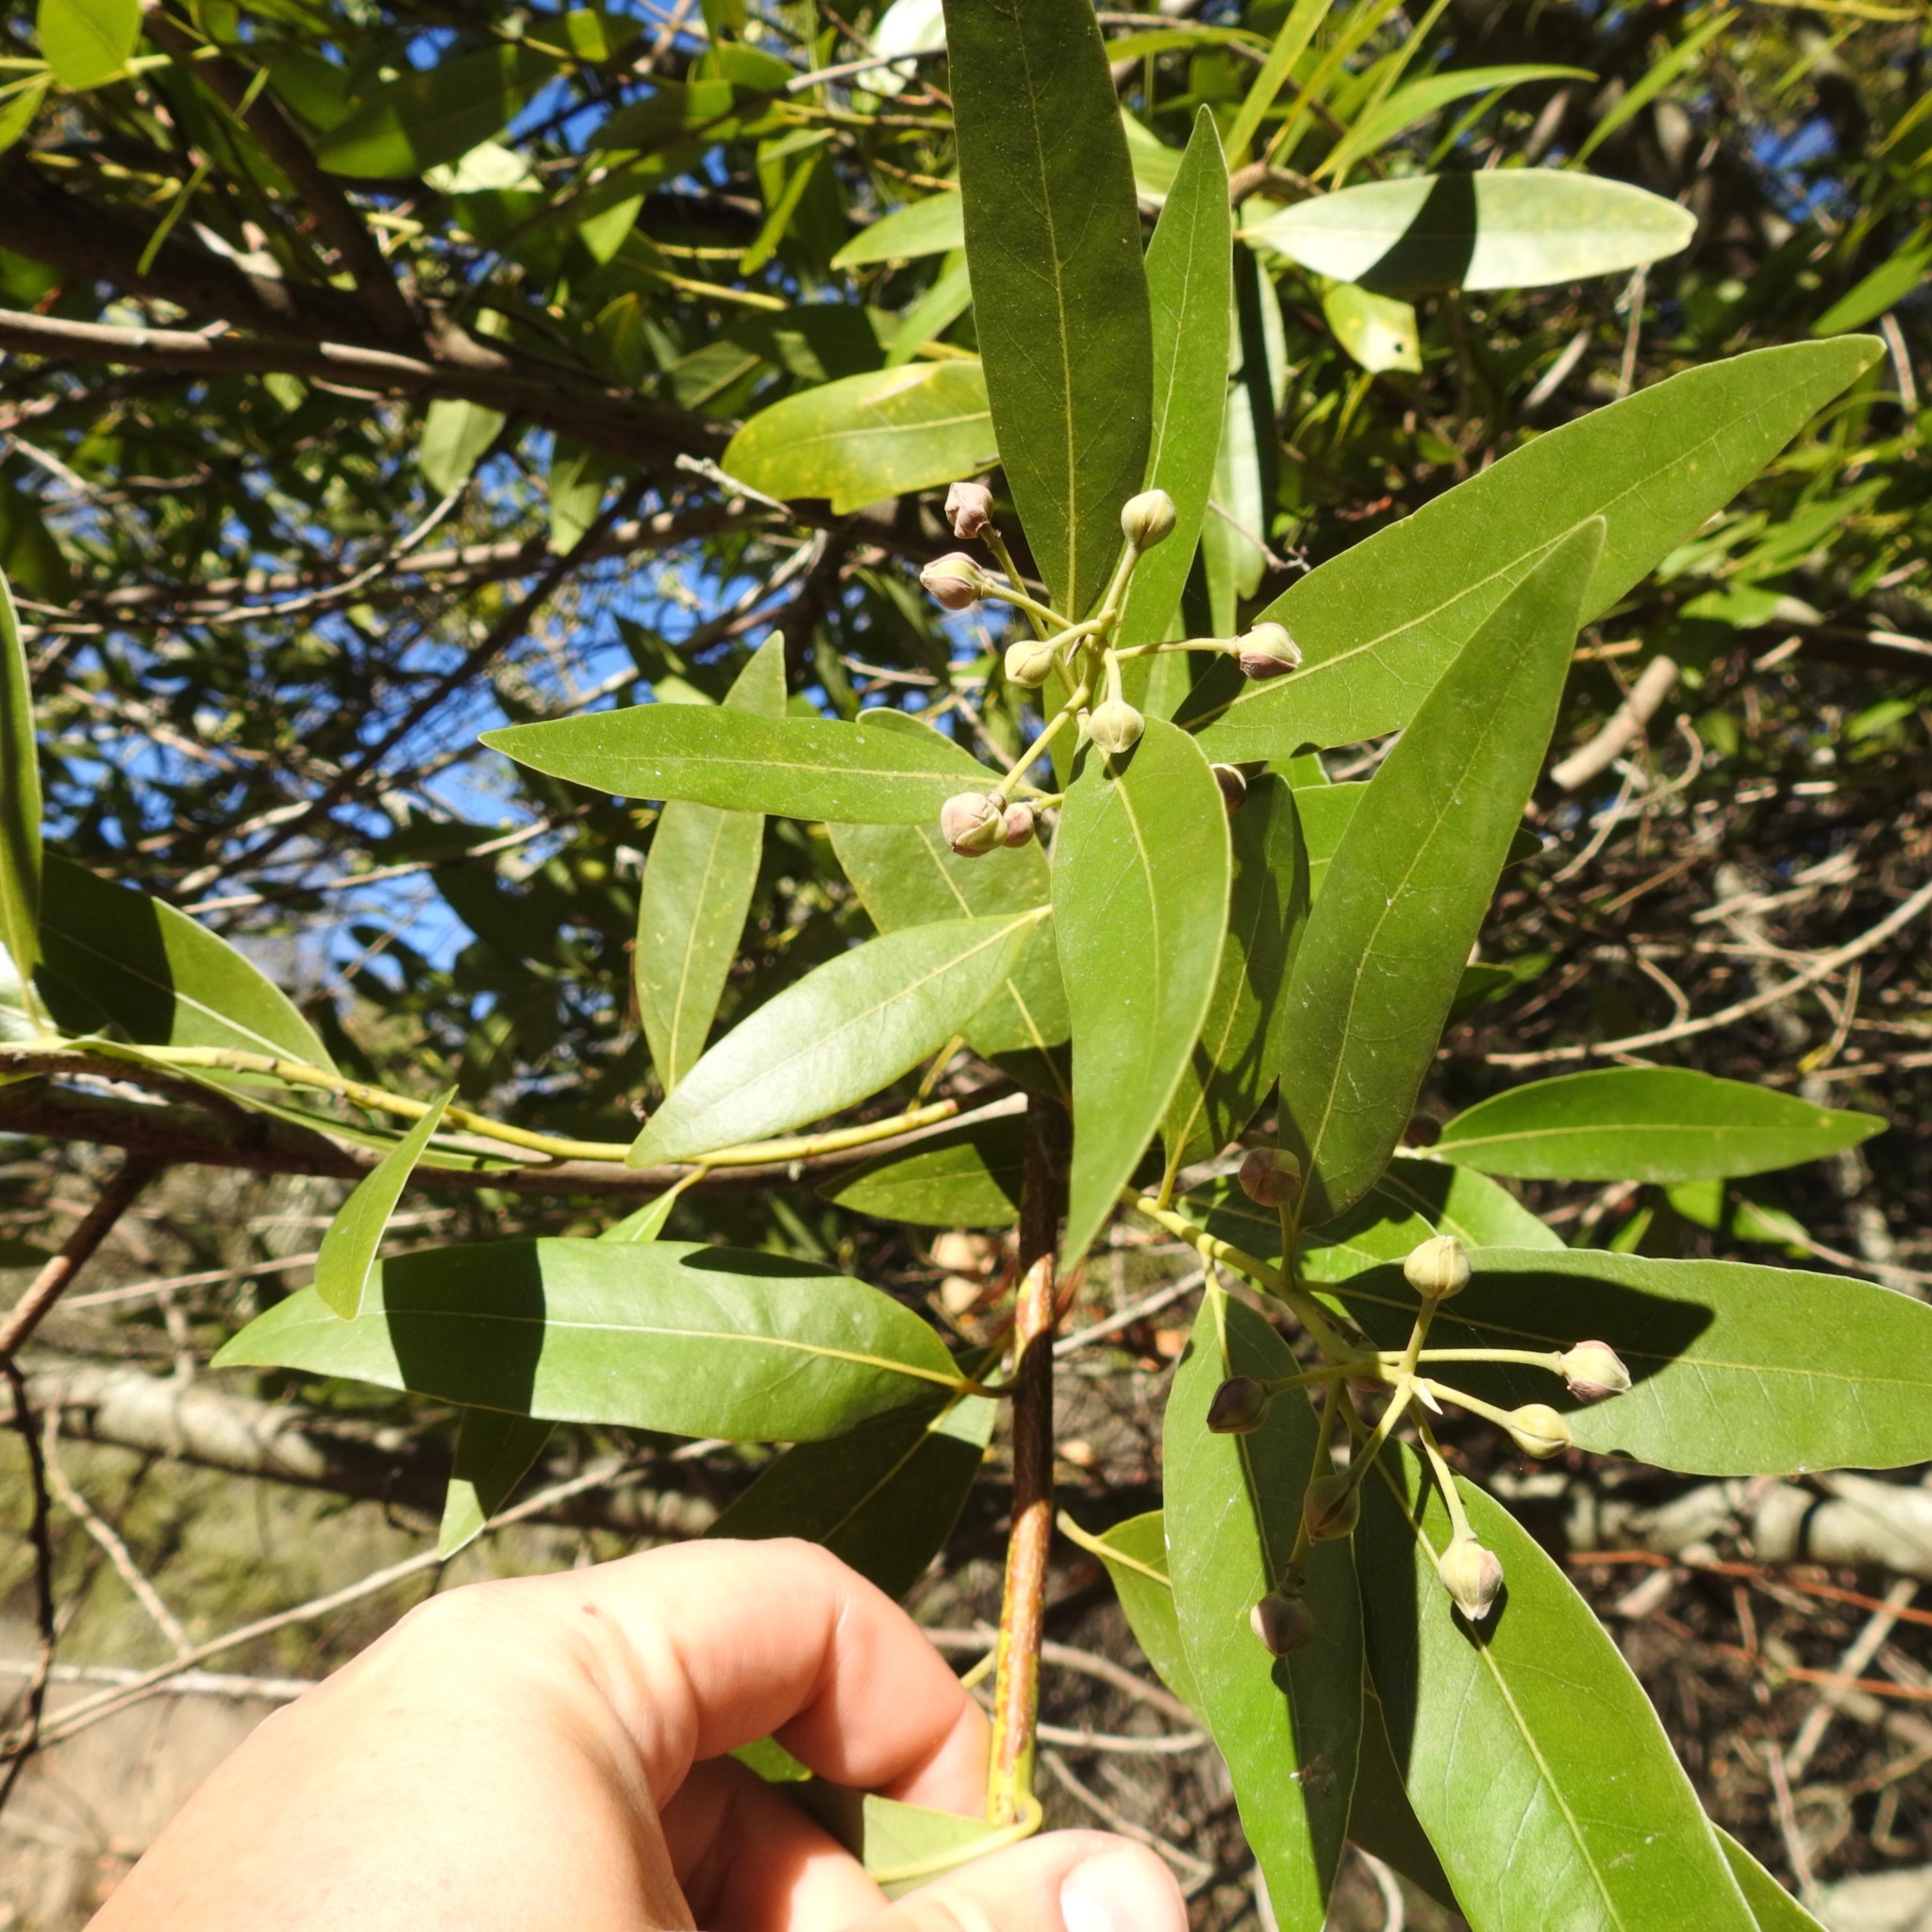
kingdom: Plantae
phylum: Tracheophyta
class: Magnoliopsida
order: Laurales
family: Lauraceae
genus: Umbellularia
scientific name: Umbellularia californica
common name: California bay
